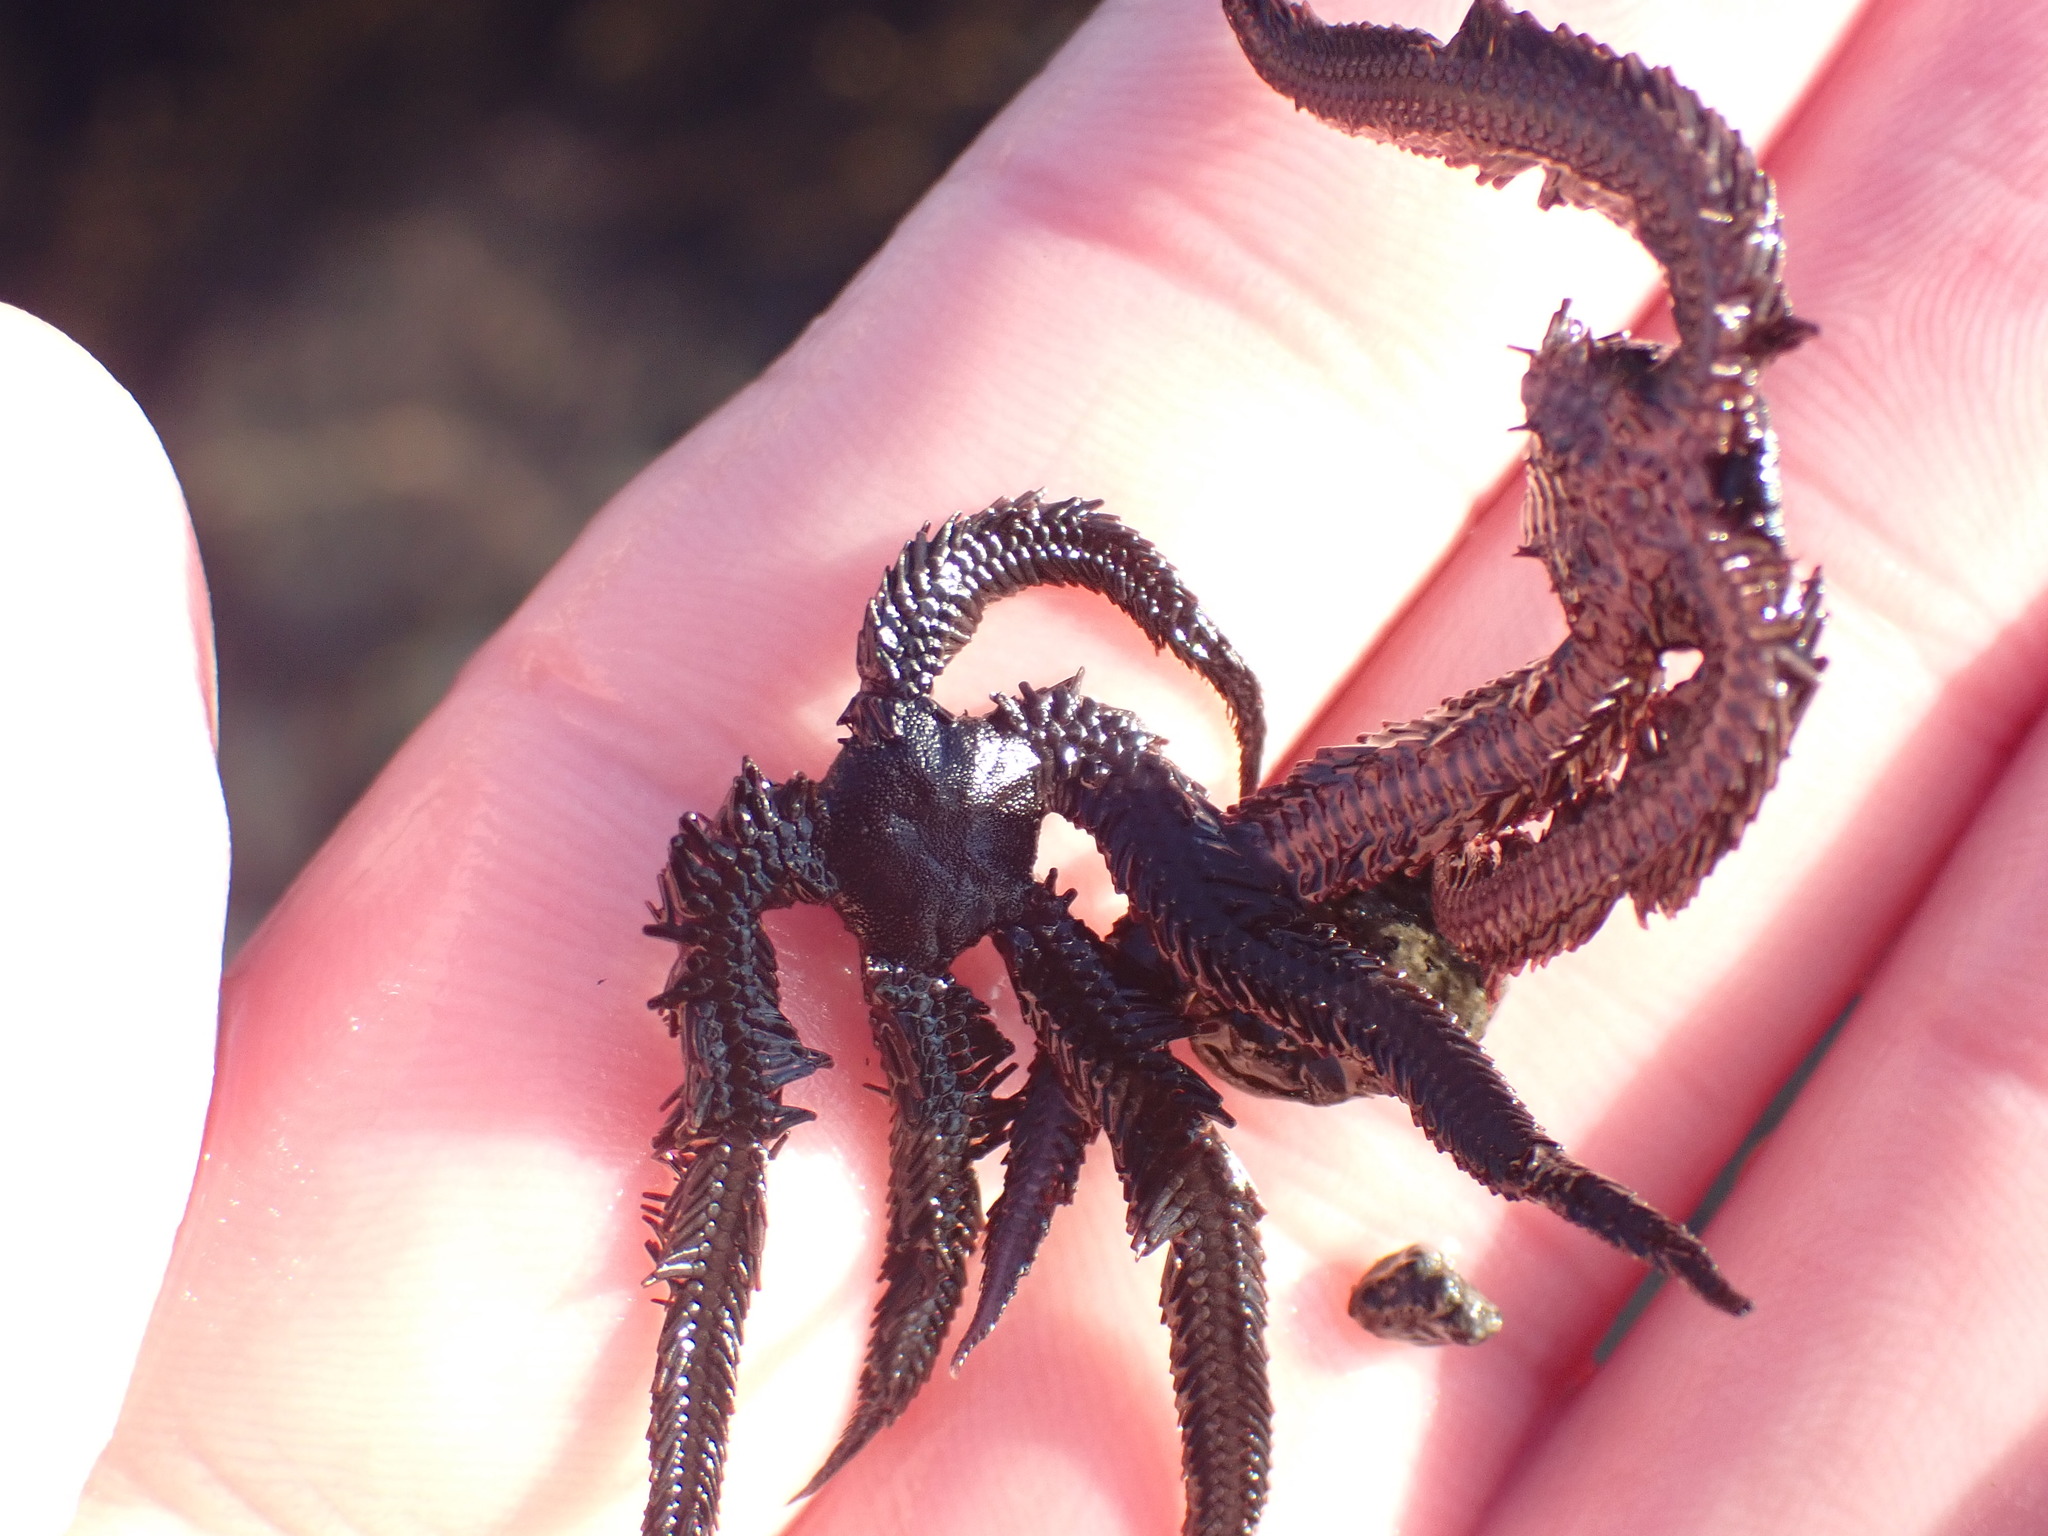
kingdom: Animalia
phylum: Echinodermata
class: Ophiuroidea
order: Ophiacanthida
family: Ophiopteridae
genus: Ophiopteris
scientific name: Ophiopteris antipodum
